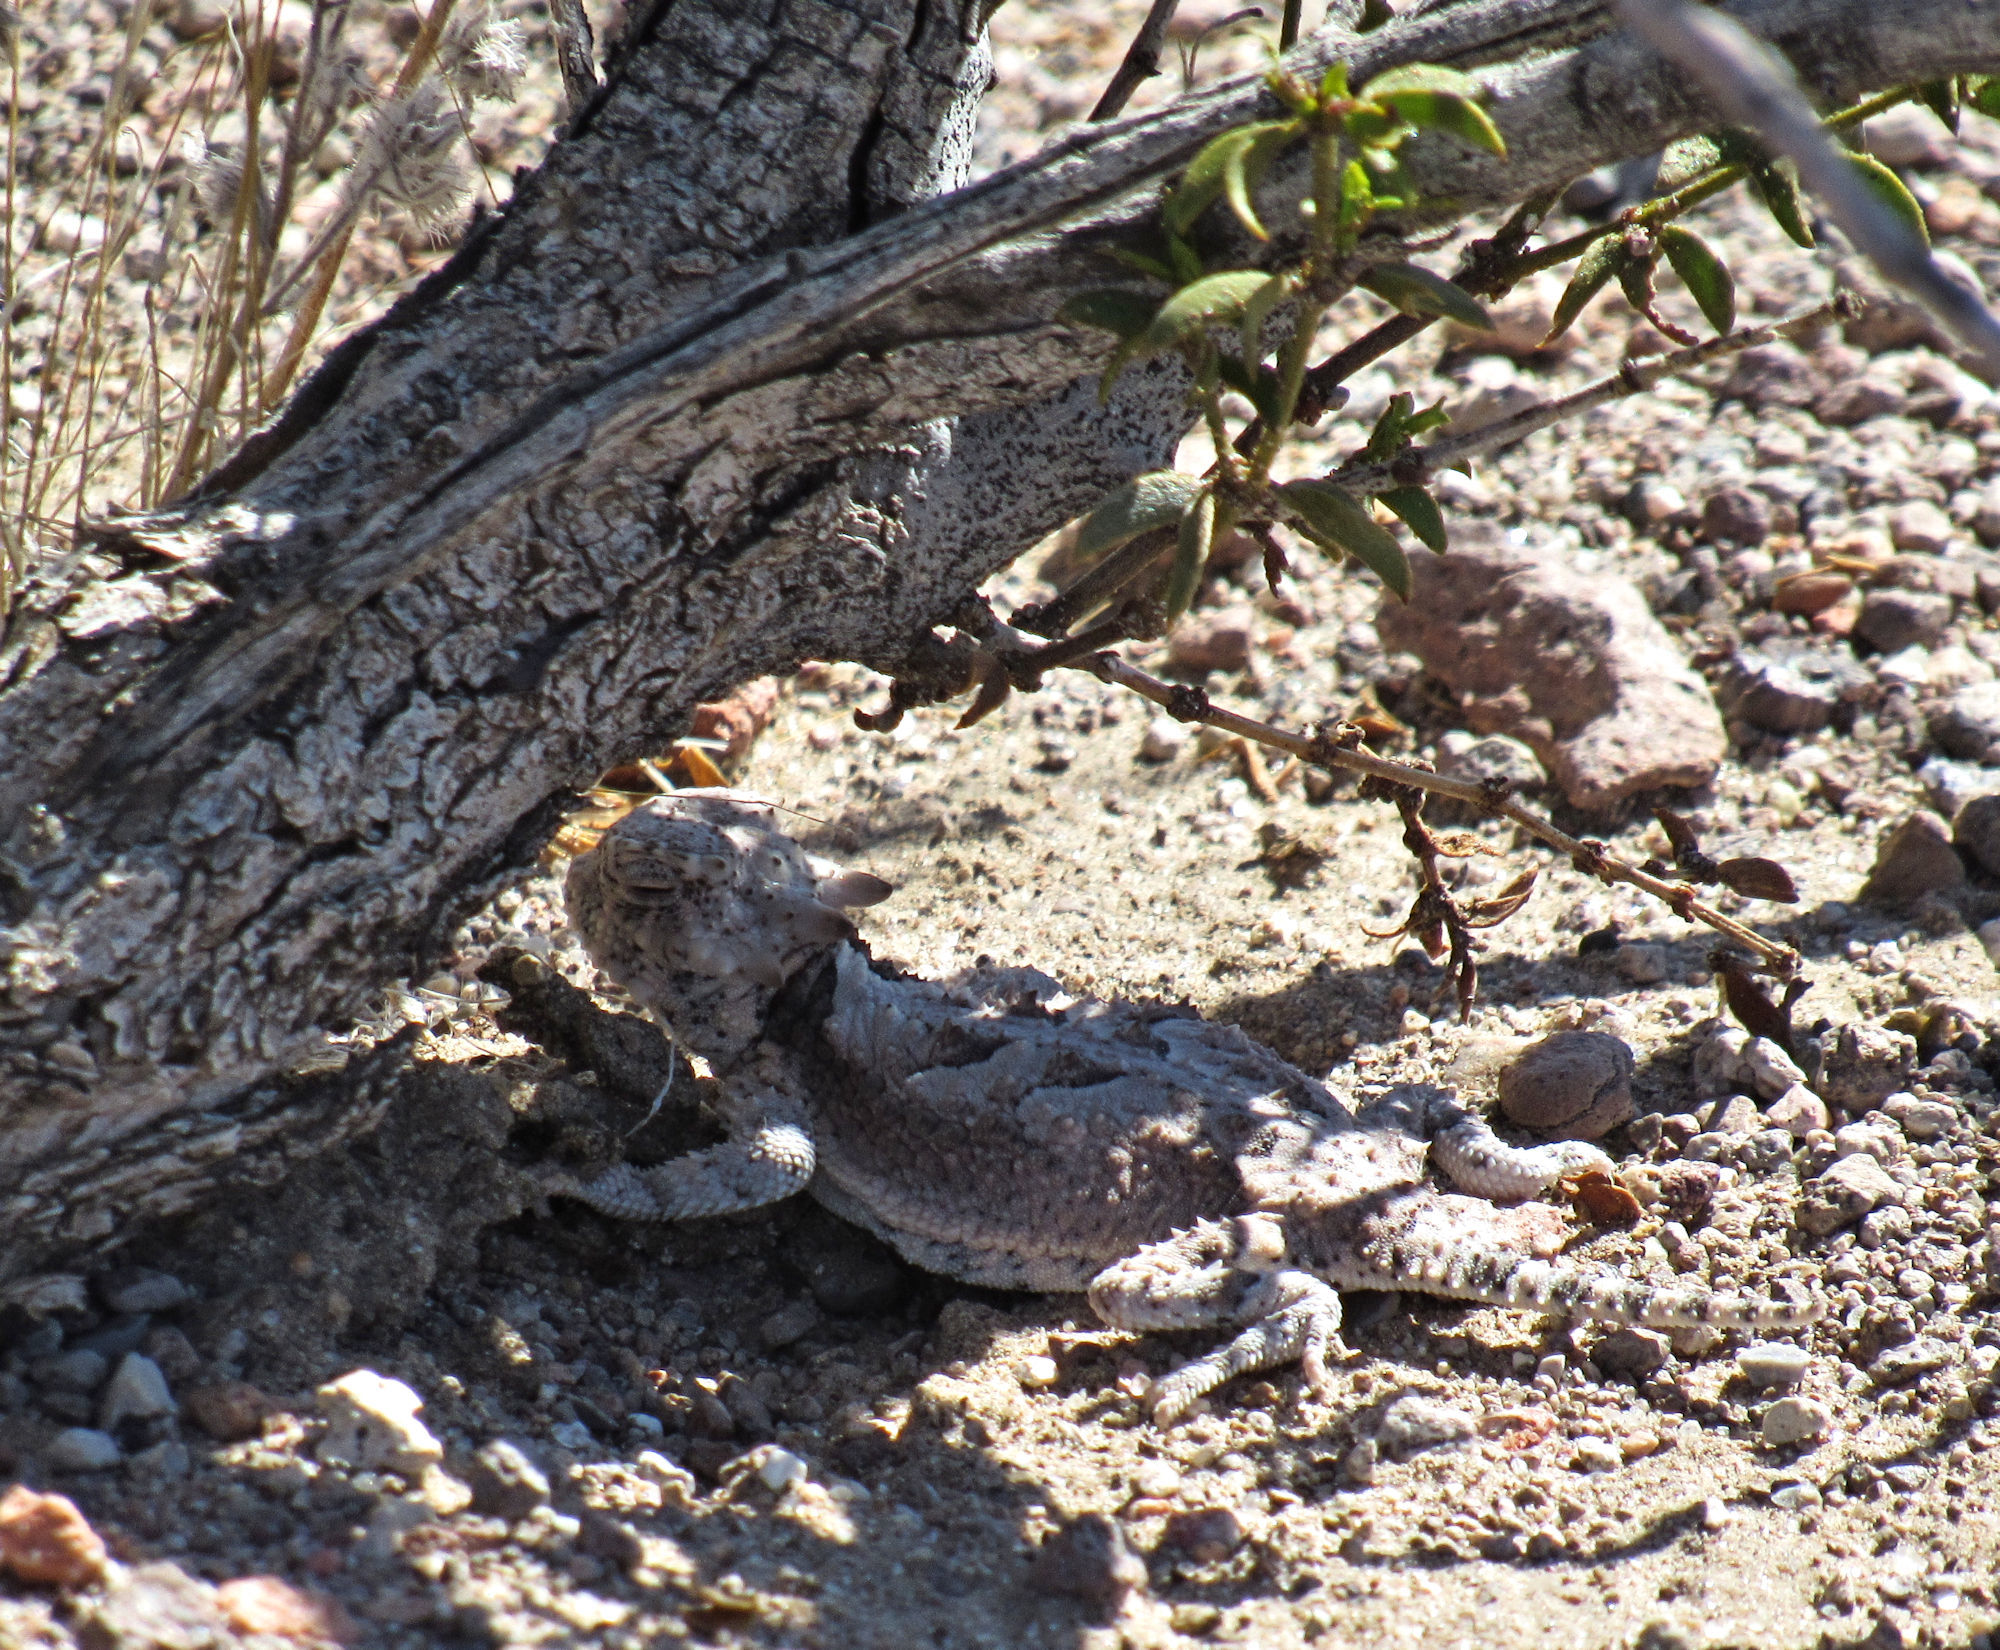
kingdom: Animalia
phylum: Chordata
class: Squamata
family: Phrynosomatidae
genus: Phrynosoma
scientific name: Phrynosoma platyrhinos
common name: Desert horned lizard
